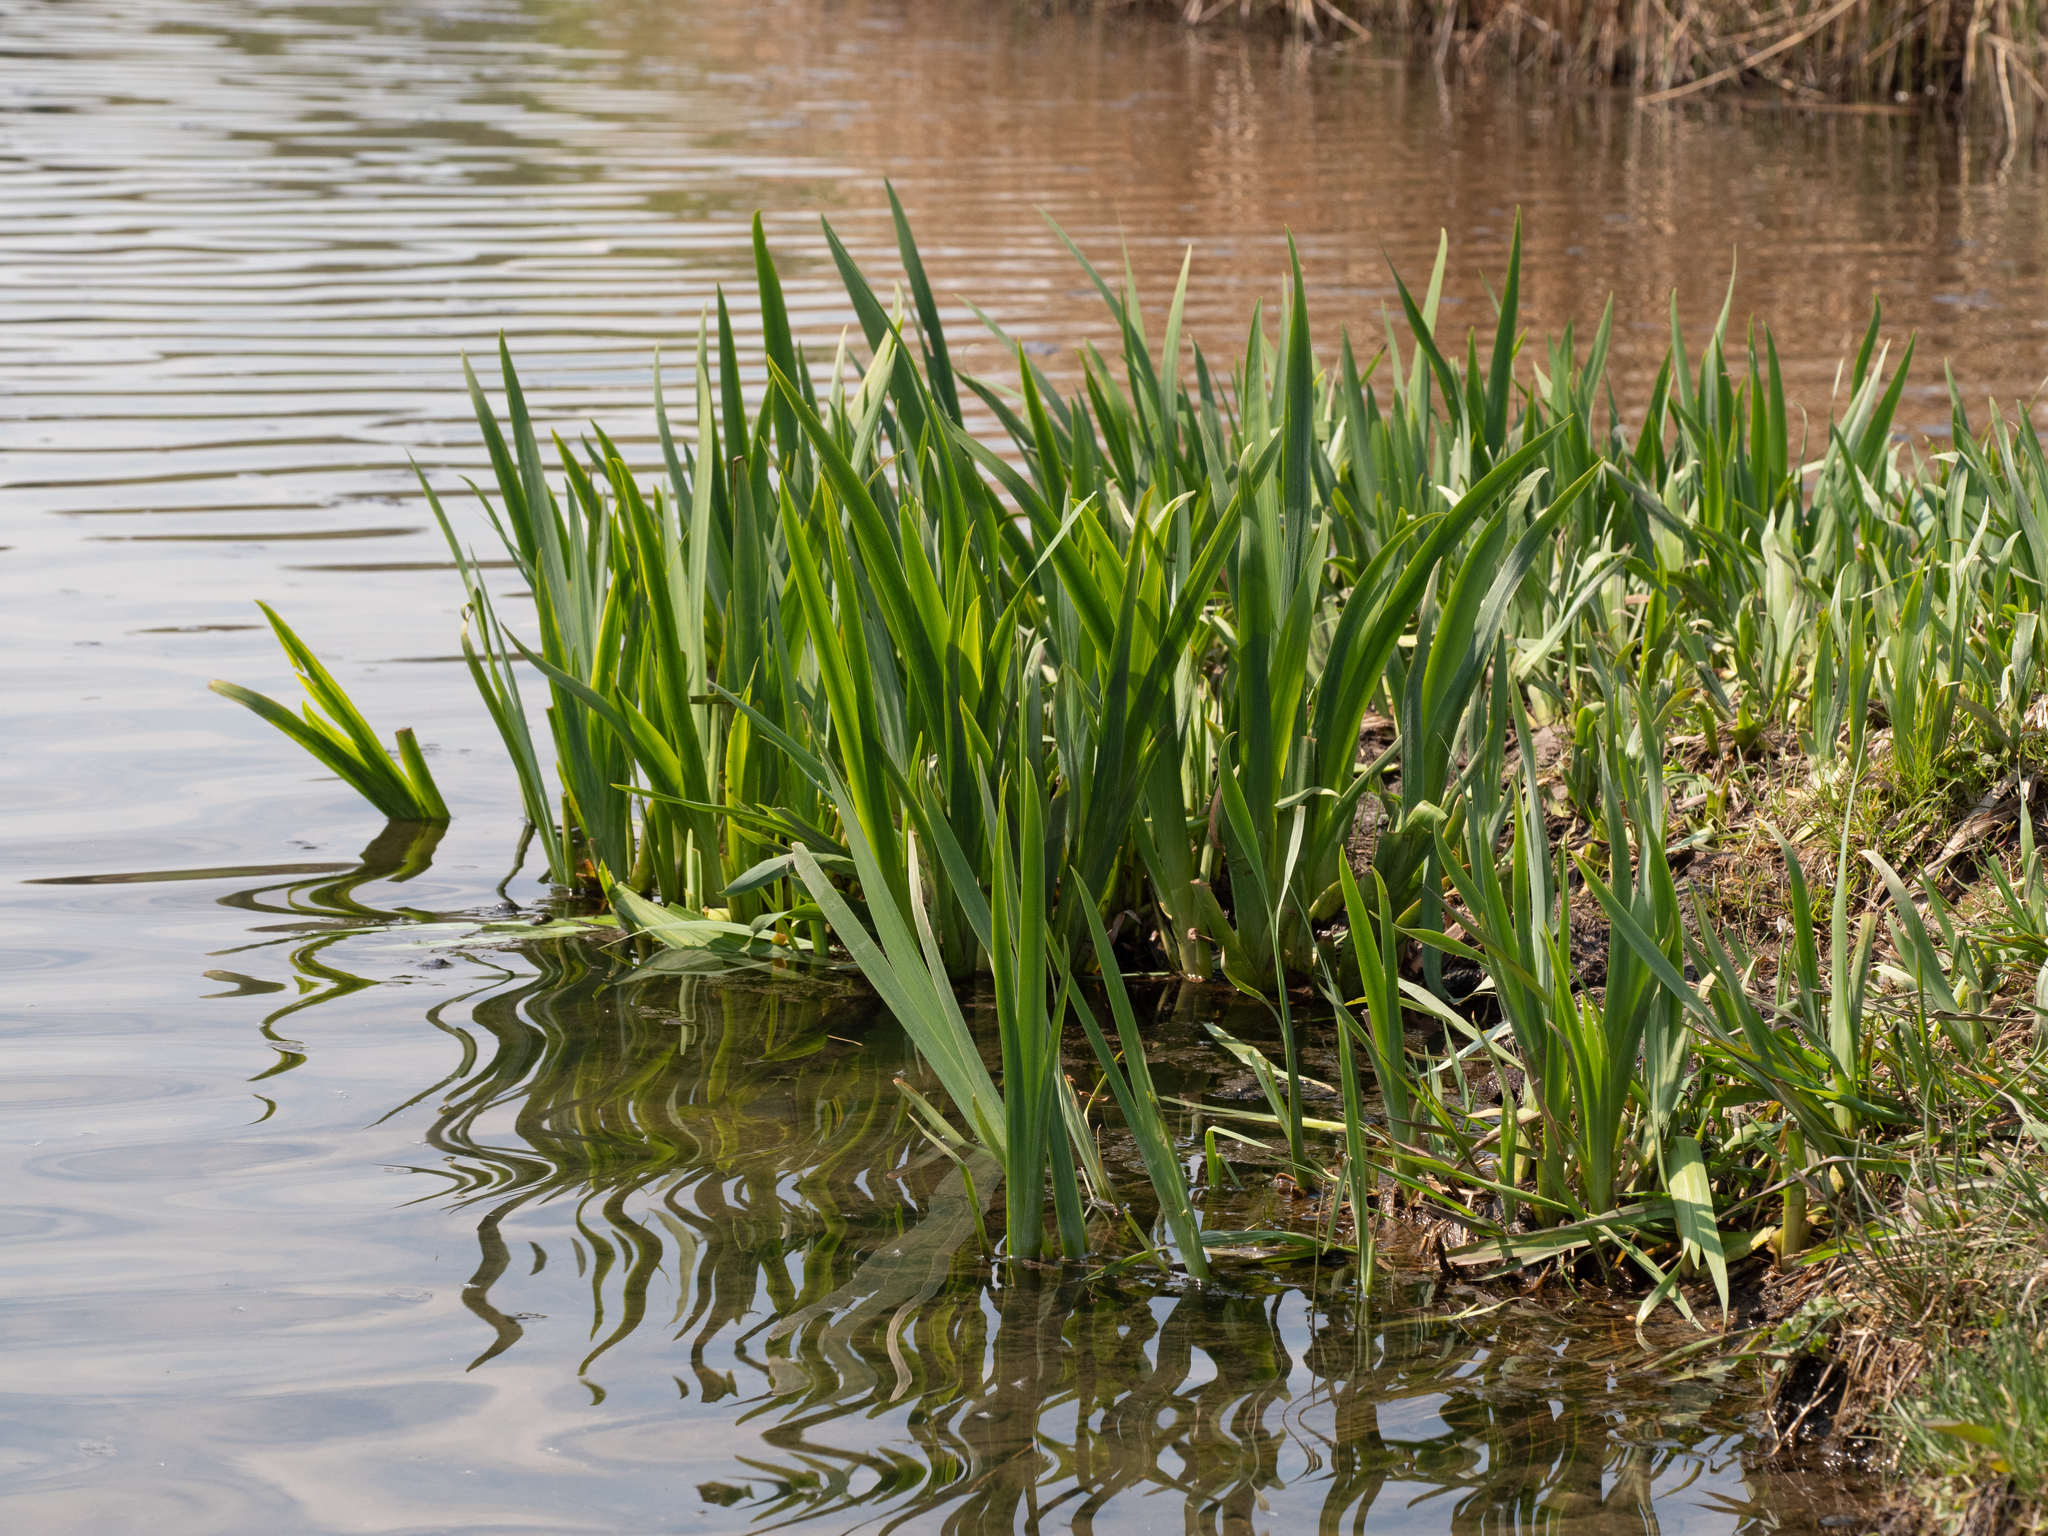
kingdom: Plantae
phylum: Tracheophyta
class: Liliopsida
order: Asparagales
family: Iridaceae
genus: Iris
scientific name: Iris pseudacorus
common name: Yellow flag
